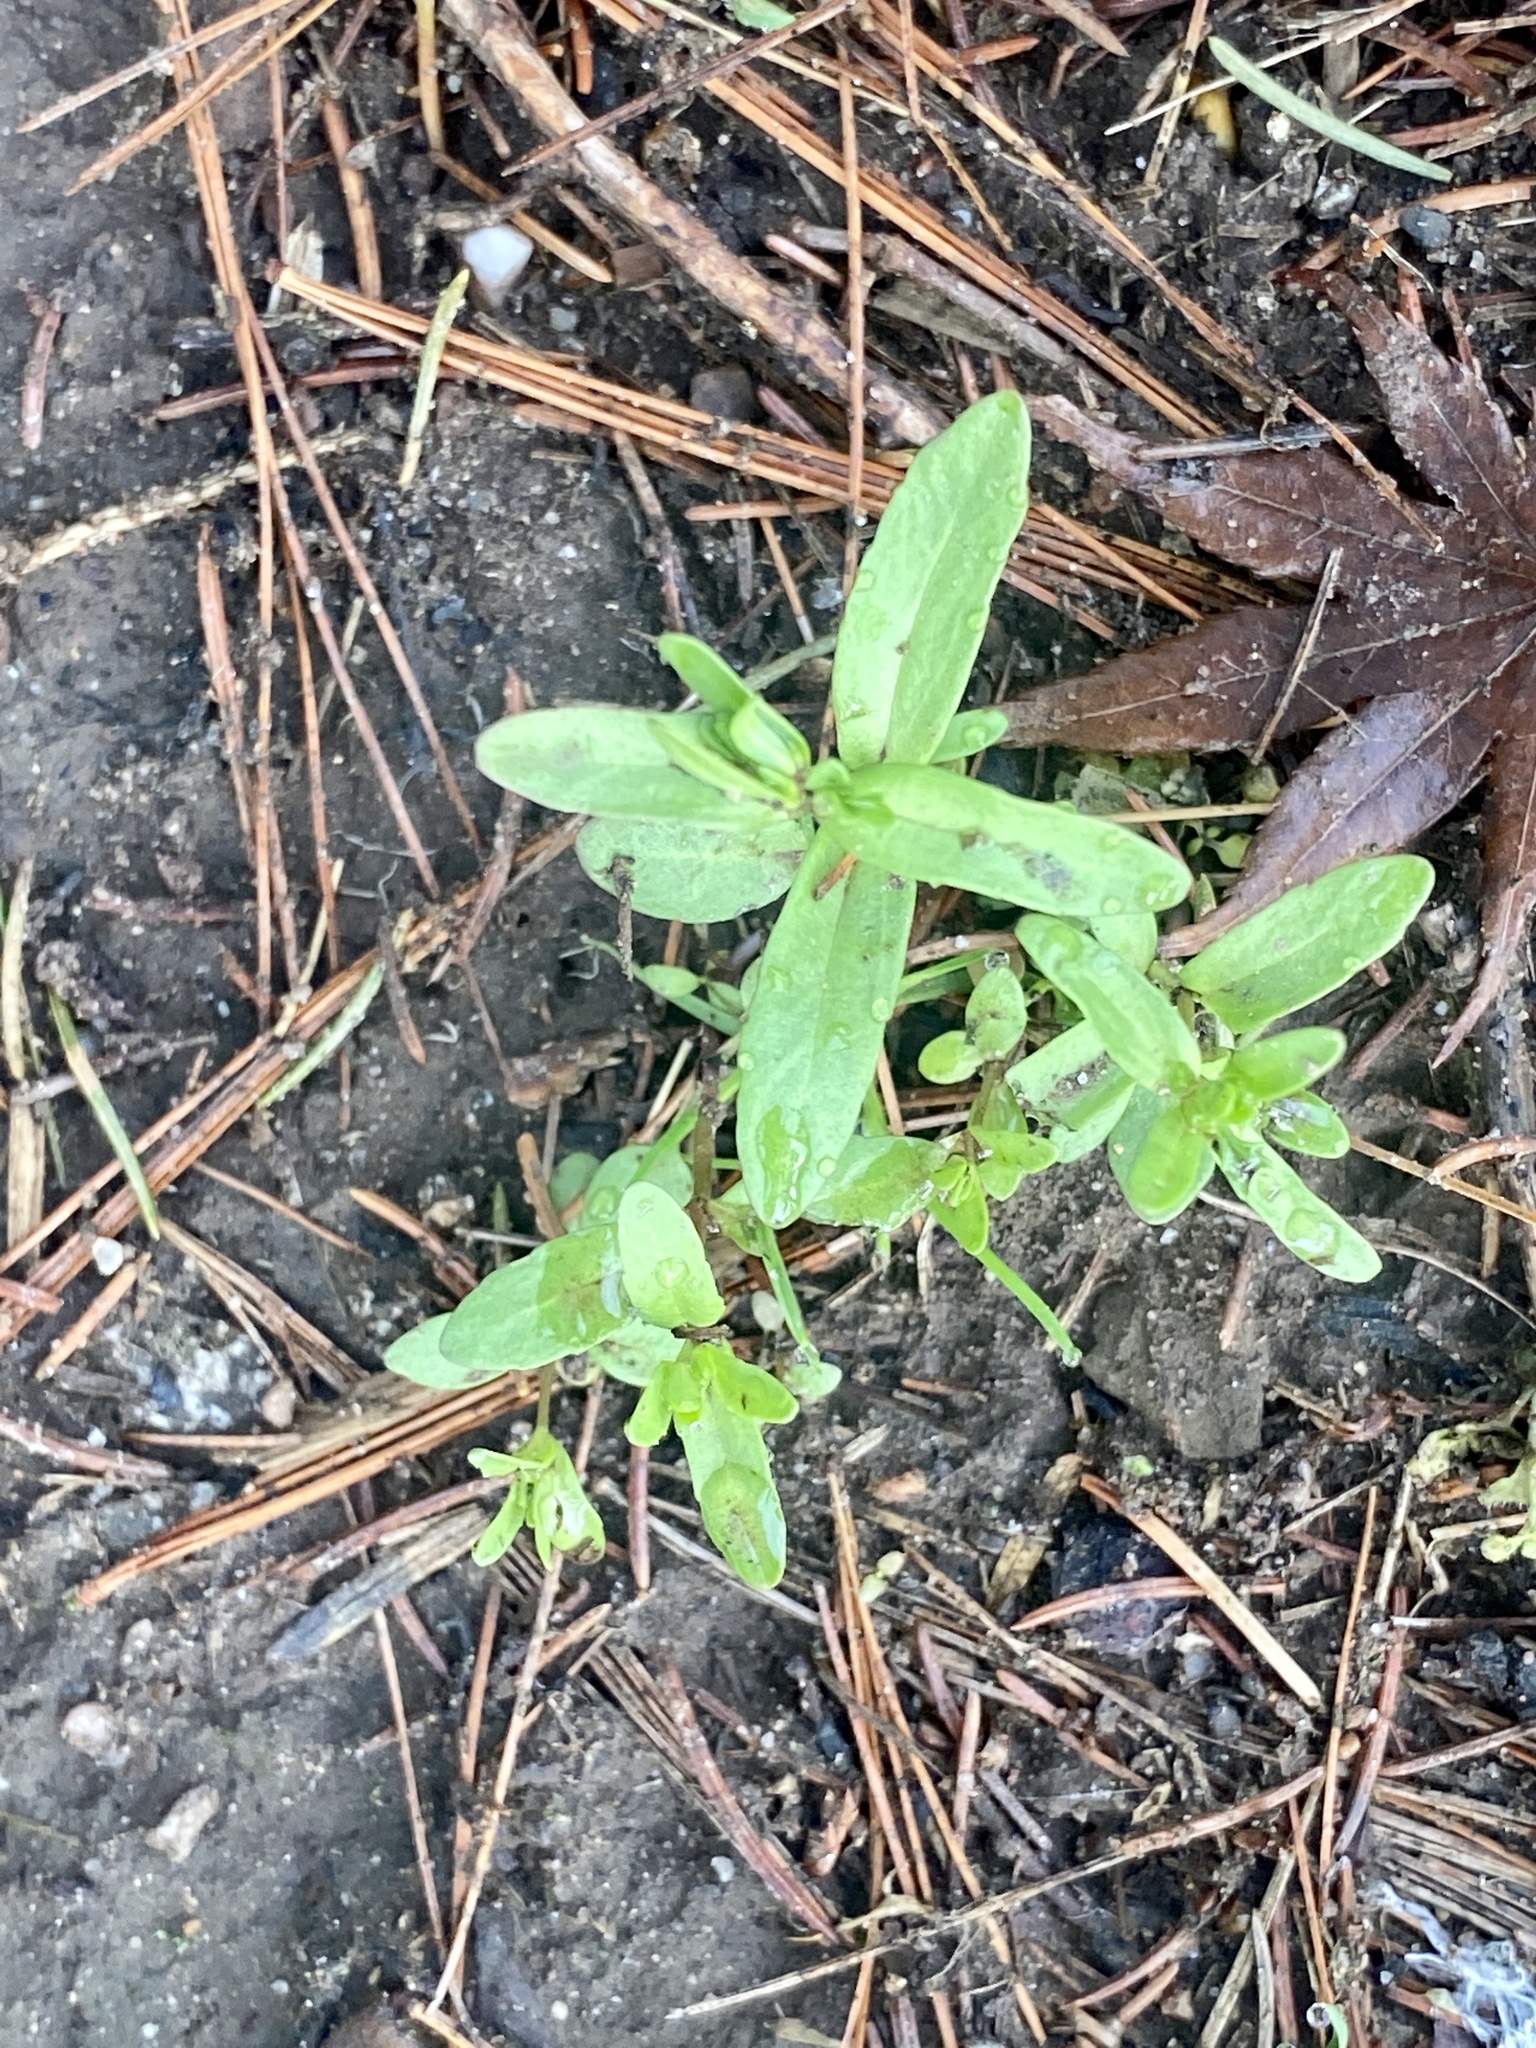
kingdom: Plantae
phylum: Tracheophyta
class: Magnoliopsida
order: Lamiales
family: Plantaginaceae
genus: Veronica
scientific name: Veronica peregrina
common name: Neckweed
